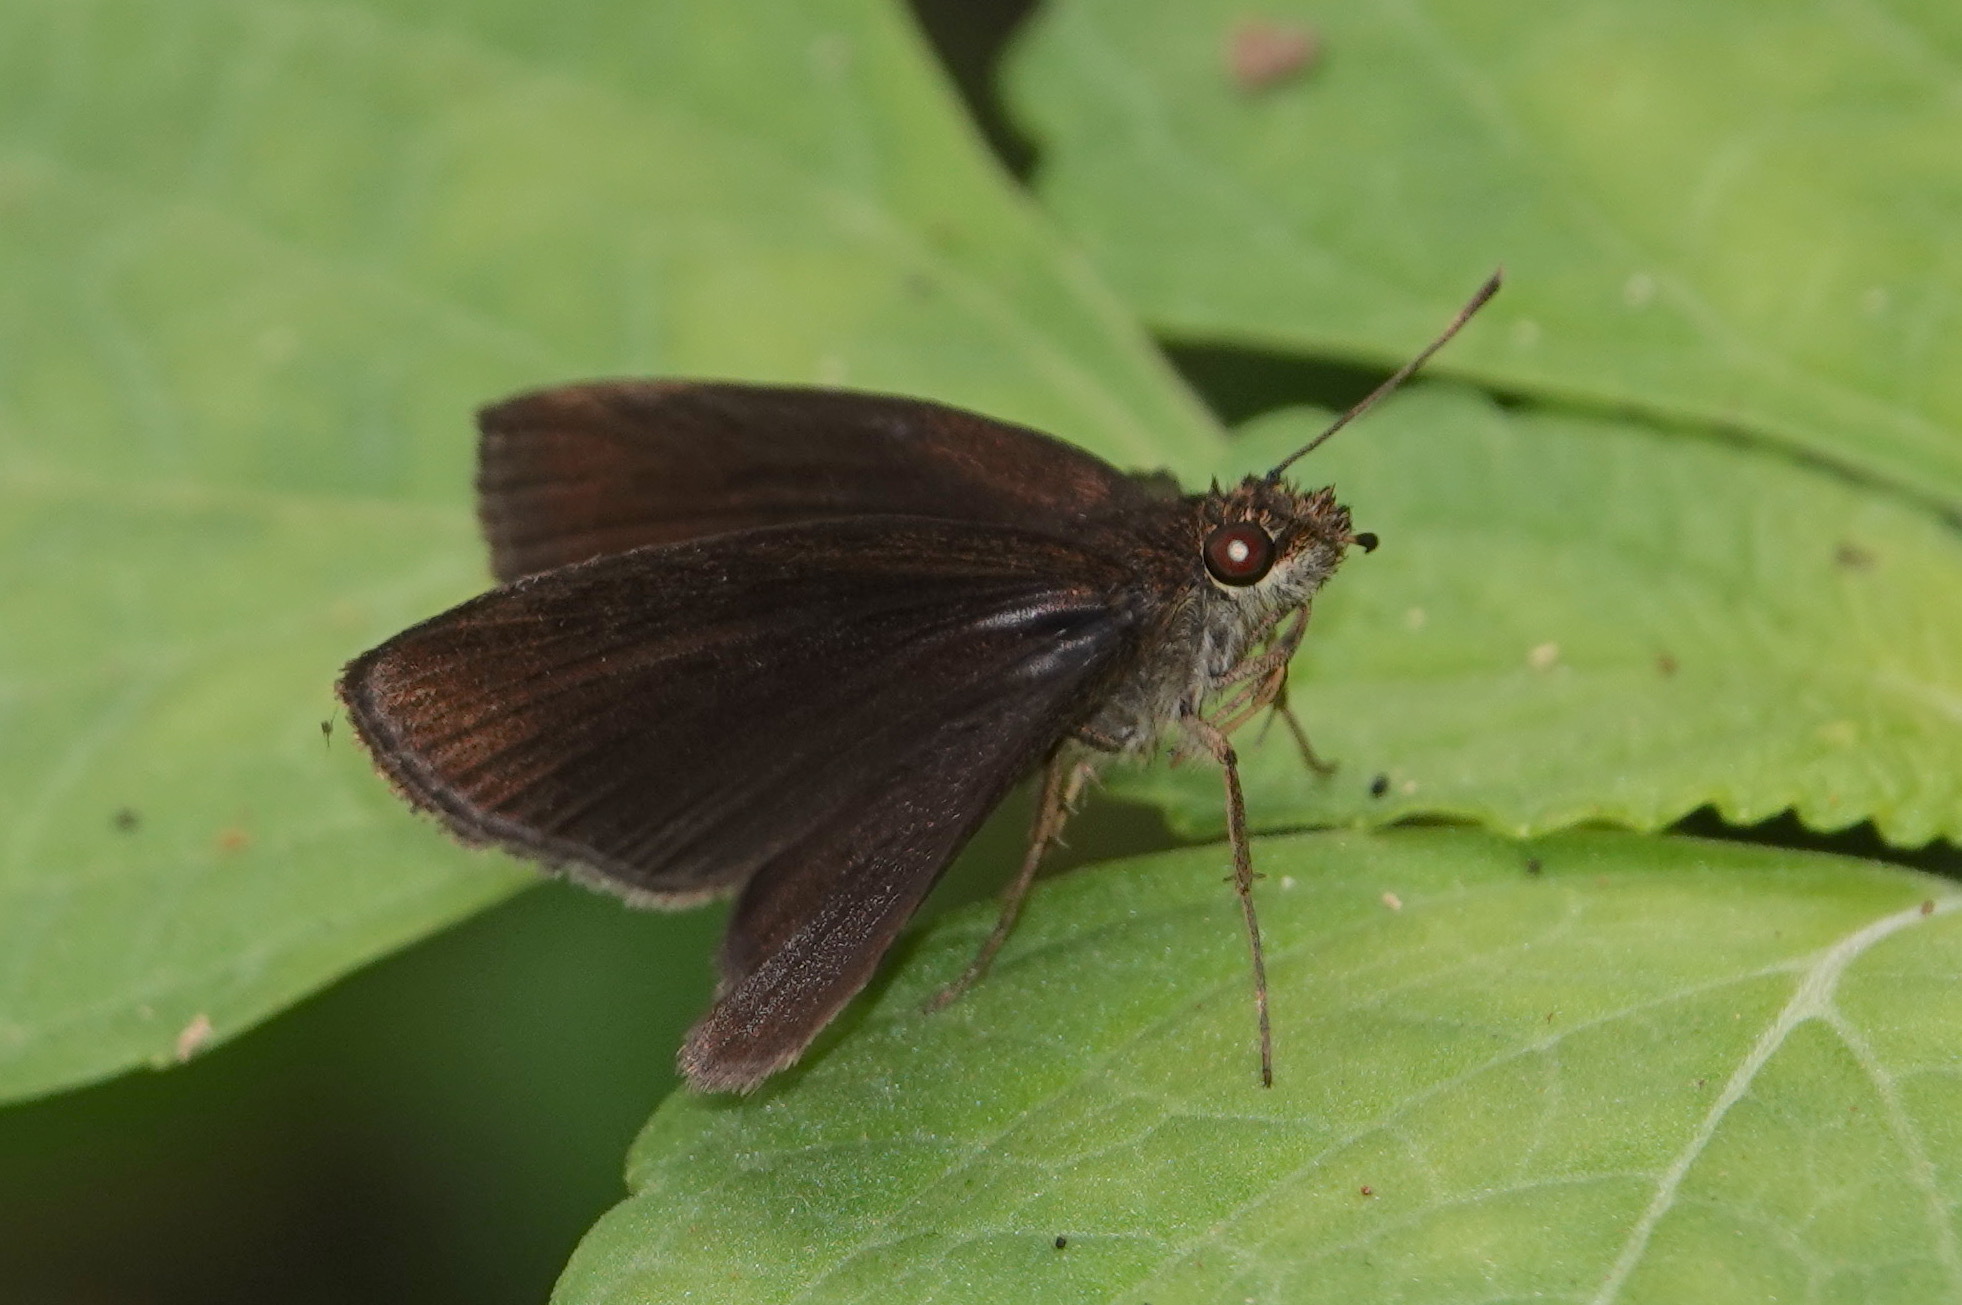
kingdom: Animalia
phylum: Arthropoda
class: Insecta
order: Lepidoptera
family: Hesperiidae
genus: Ancistroides
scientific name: Ancistroides nigrita
